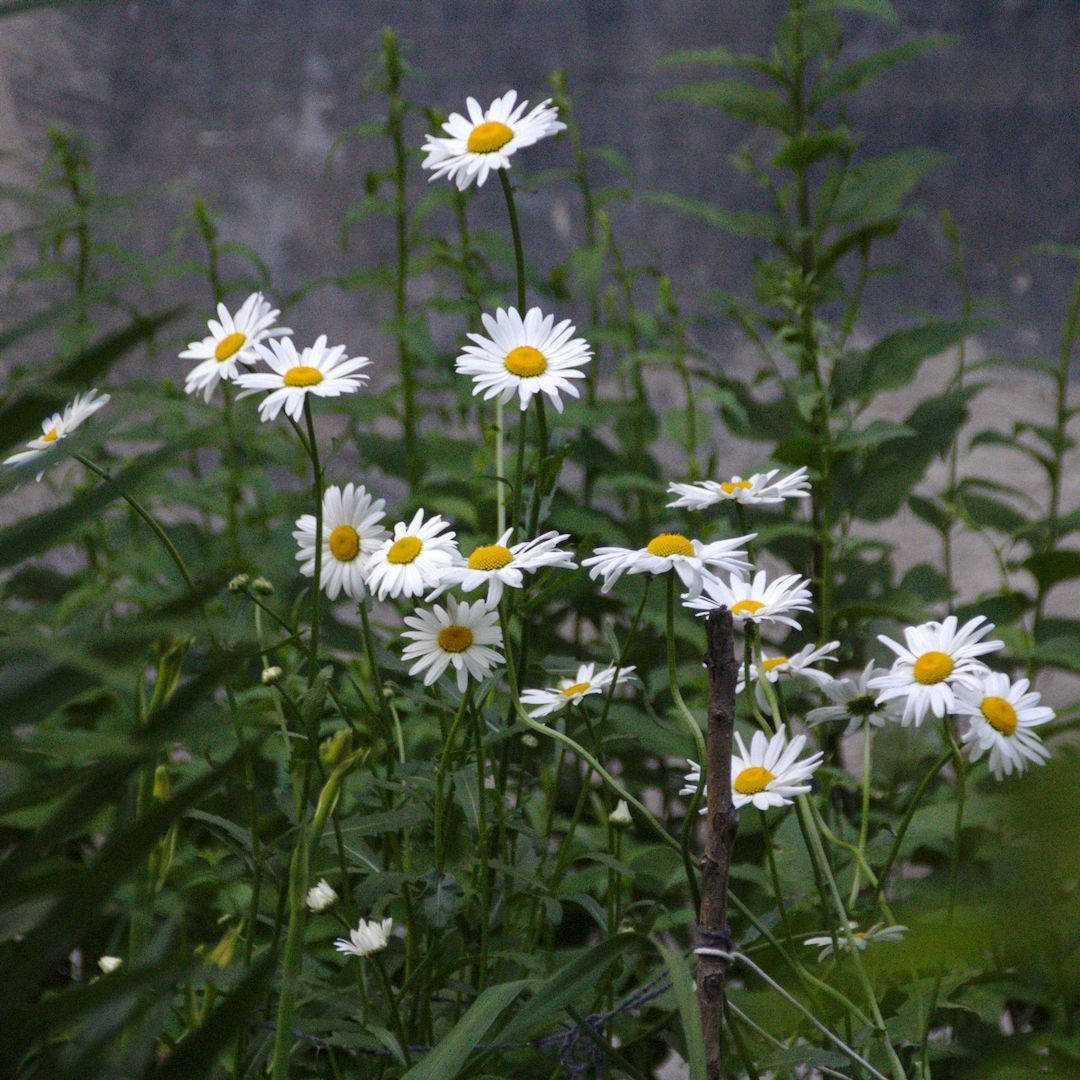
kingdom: Plantae
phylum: Tracheophyta
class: Magnoliopsida
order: Asterales
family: Asteraceae
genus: Leucanthemum
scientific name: Leucanthemum vulgare
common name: Oxeye daisy
